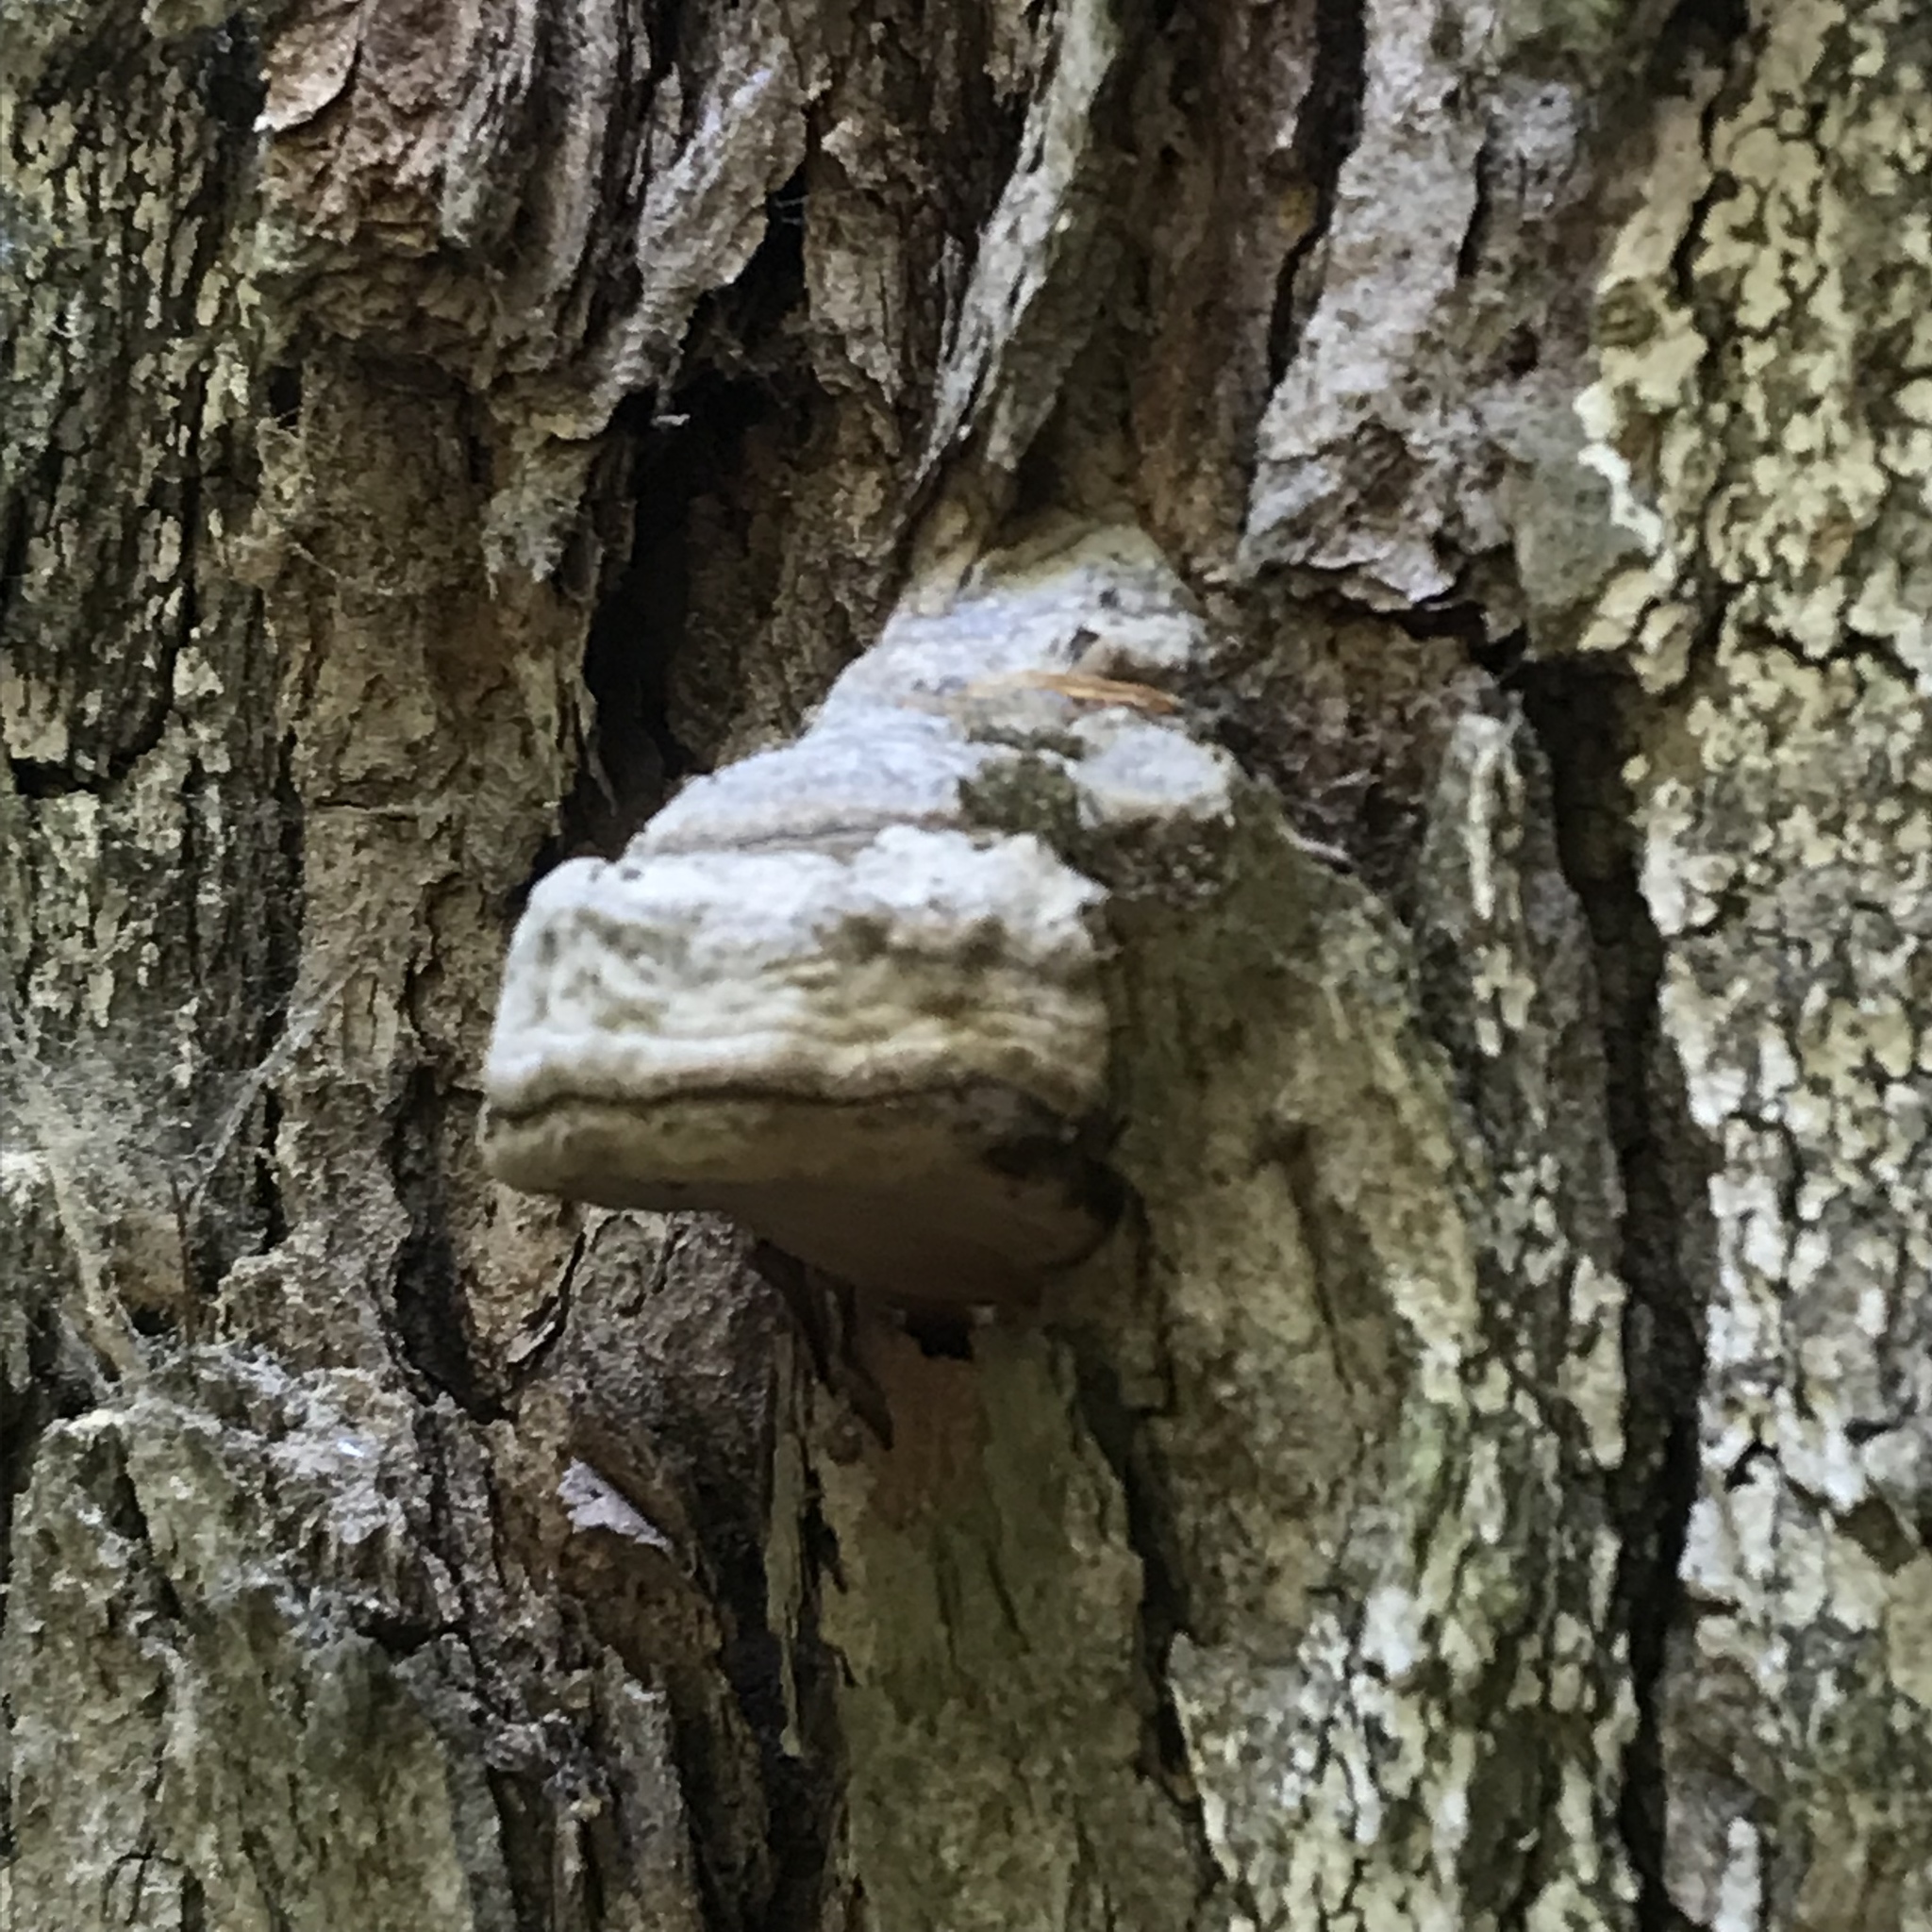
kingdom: Fungi
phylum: Basidiomycota
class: Agaricomycetes
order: Polyporales
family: Polyporaceae
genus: Fomes
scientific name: Fomes fomentarius
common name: Hoof fungus
